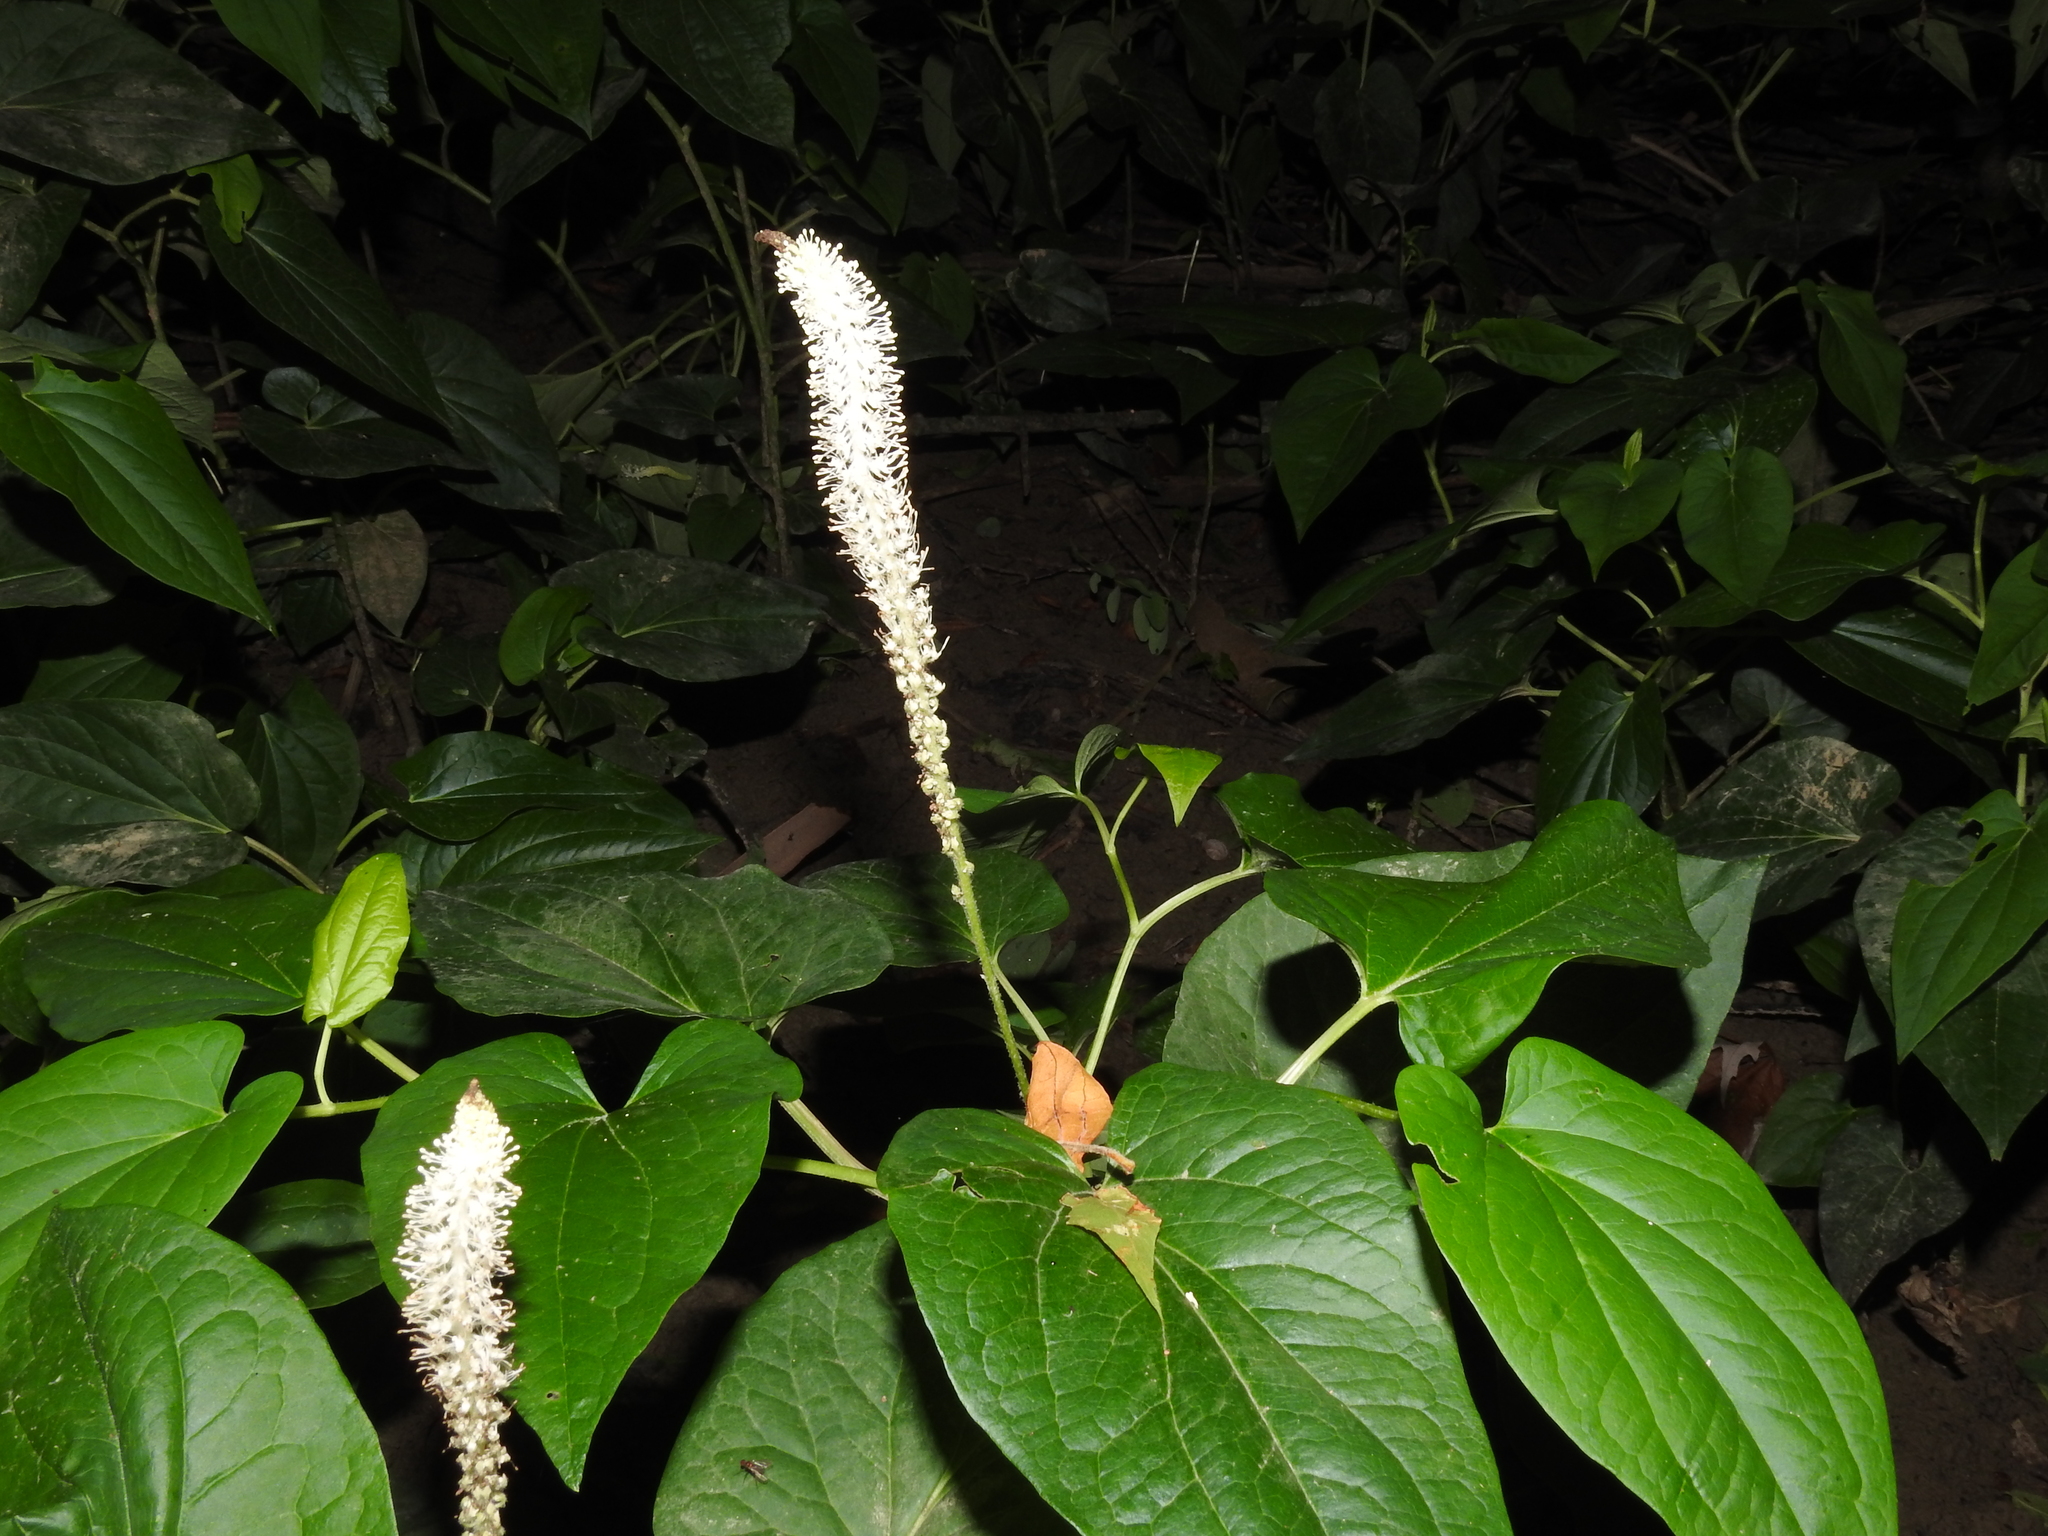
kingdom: Plantae
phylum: Tracheophyta
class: Magnoliopsida
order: Piperales
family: Saururaceae
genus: Saururus
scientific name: Saururus cernuus
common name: Lizard's-tail
